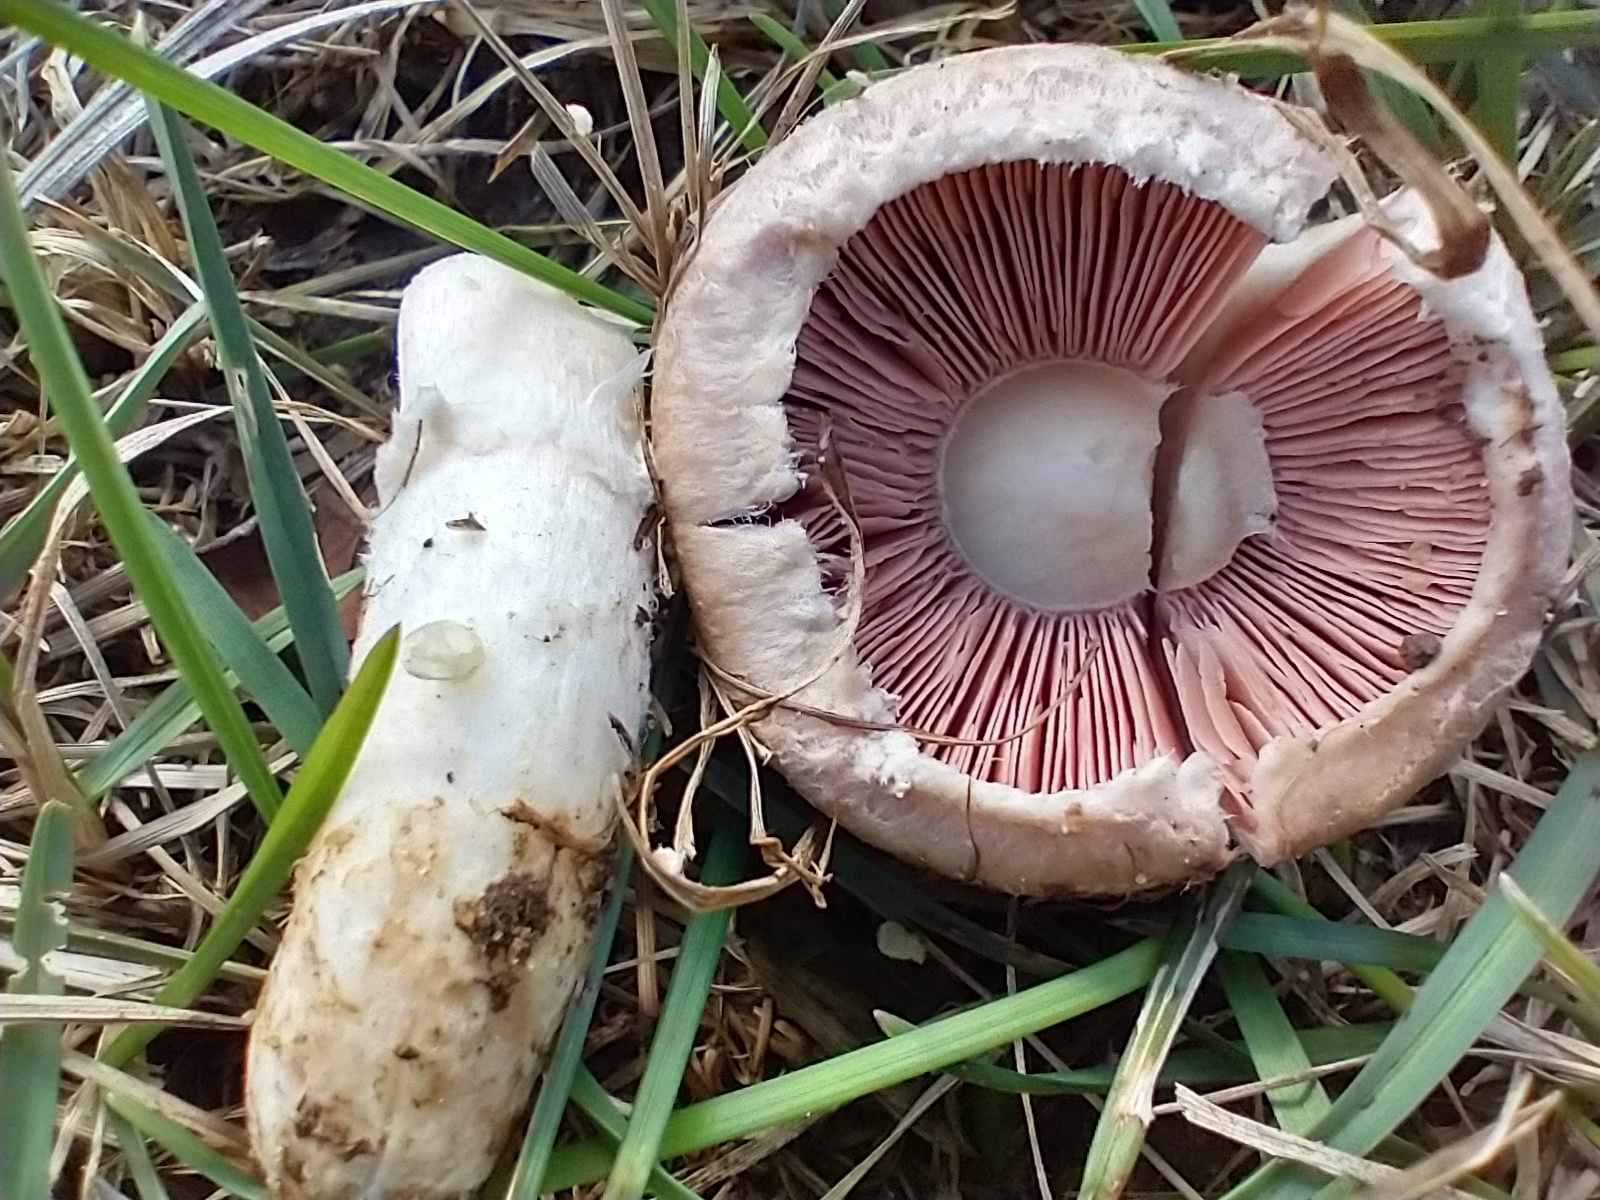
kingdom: Fungi
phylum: Basidiomycota
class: Agaricomycetes
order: Agaricales
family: Agaricaceae
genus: Agaricus
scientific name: Agaricus
